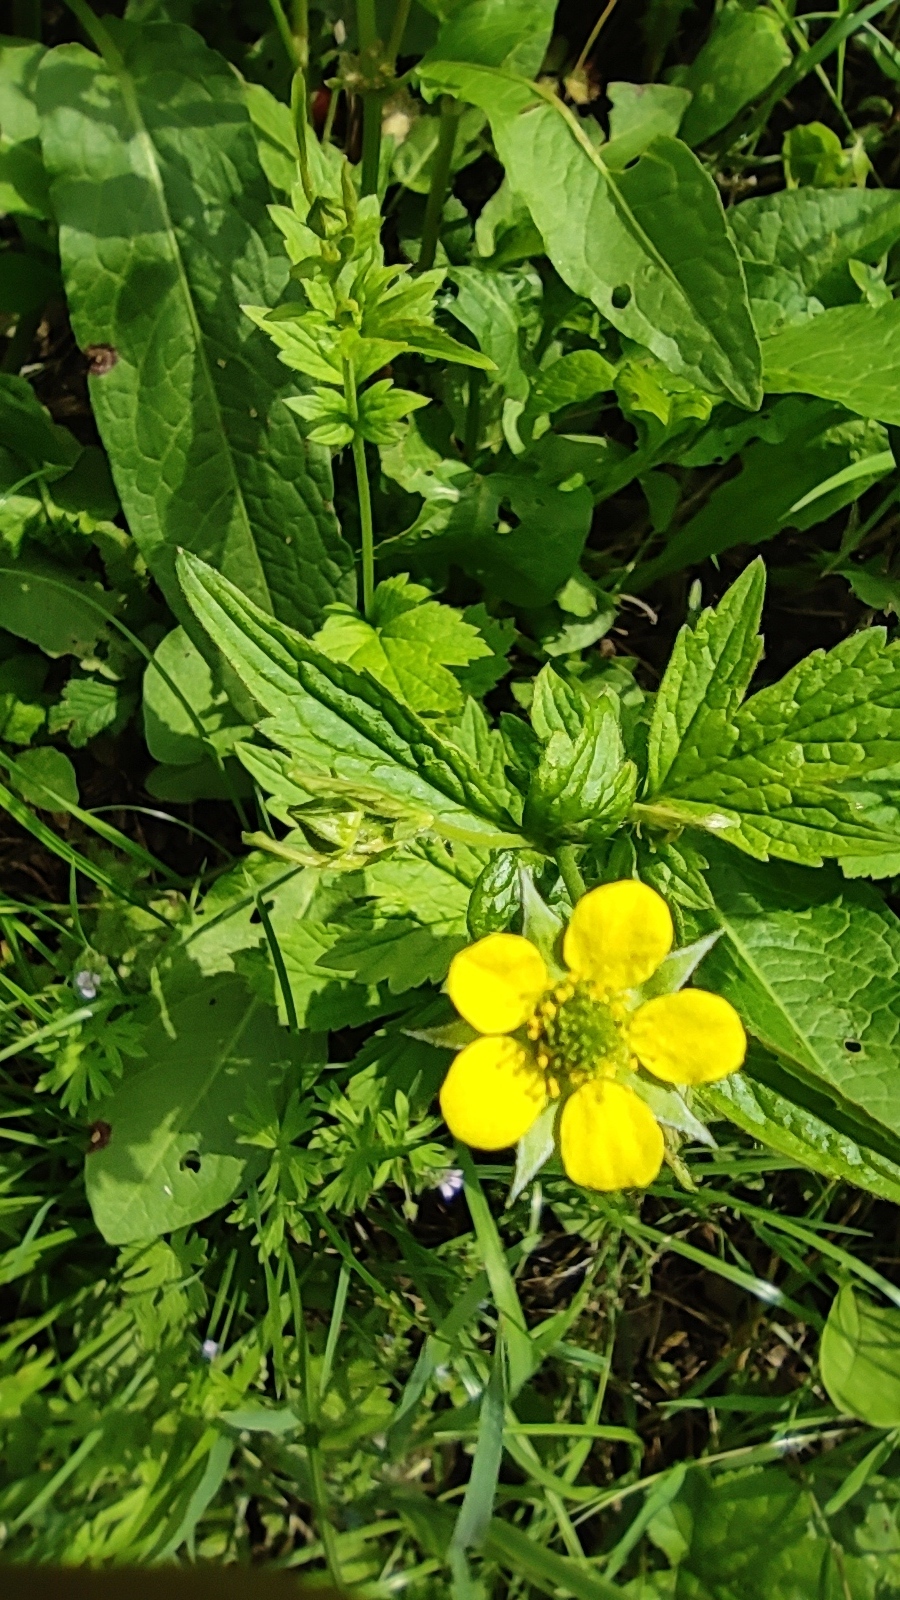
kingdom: Plantae
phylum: Tracheophyta
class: Magnoliopsida
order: Rosales
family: Rosaceae
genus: Geum
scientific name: Geum urbanum
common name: Wood avens
